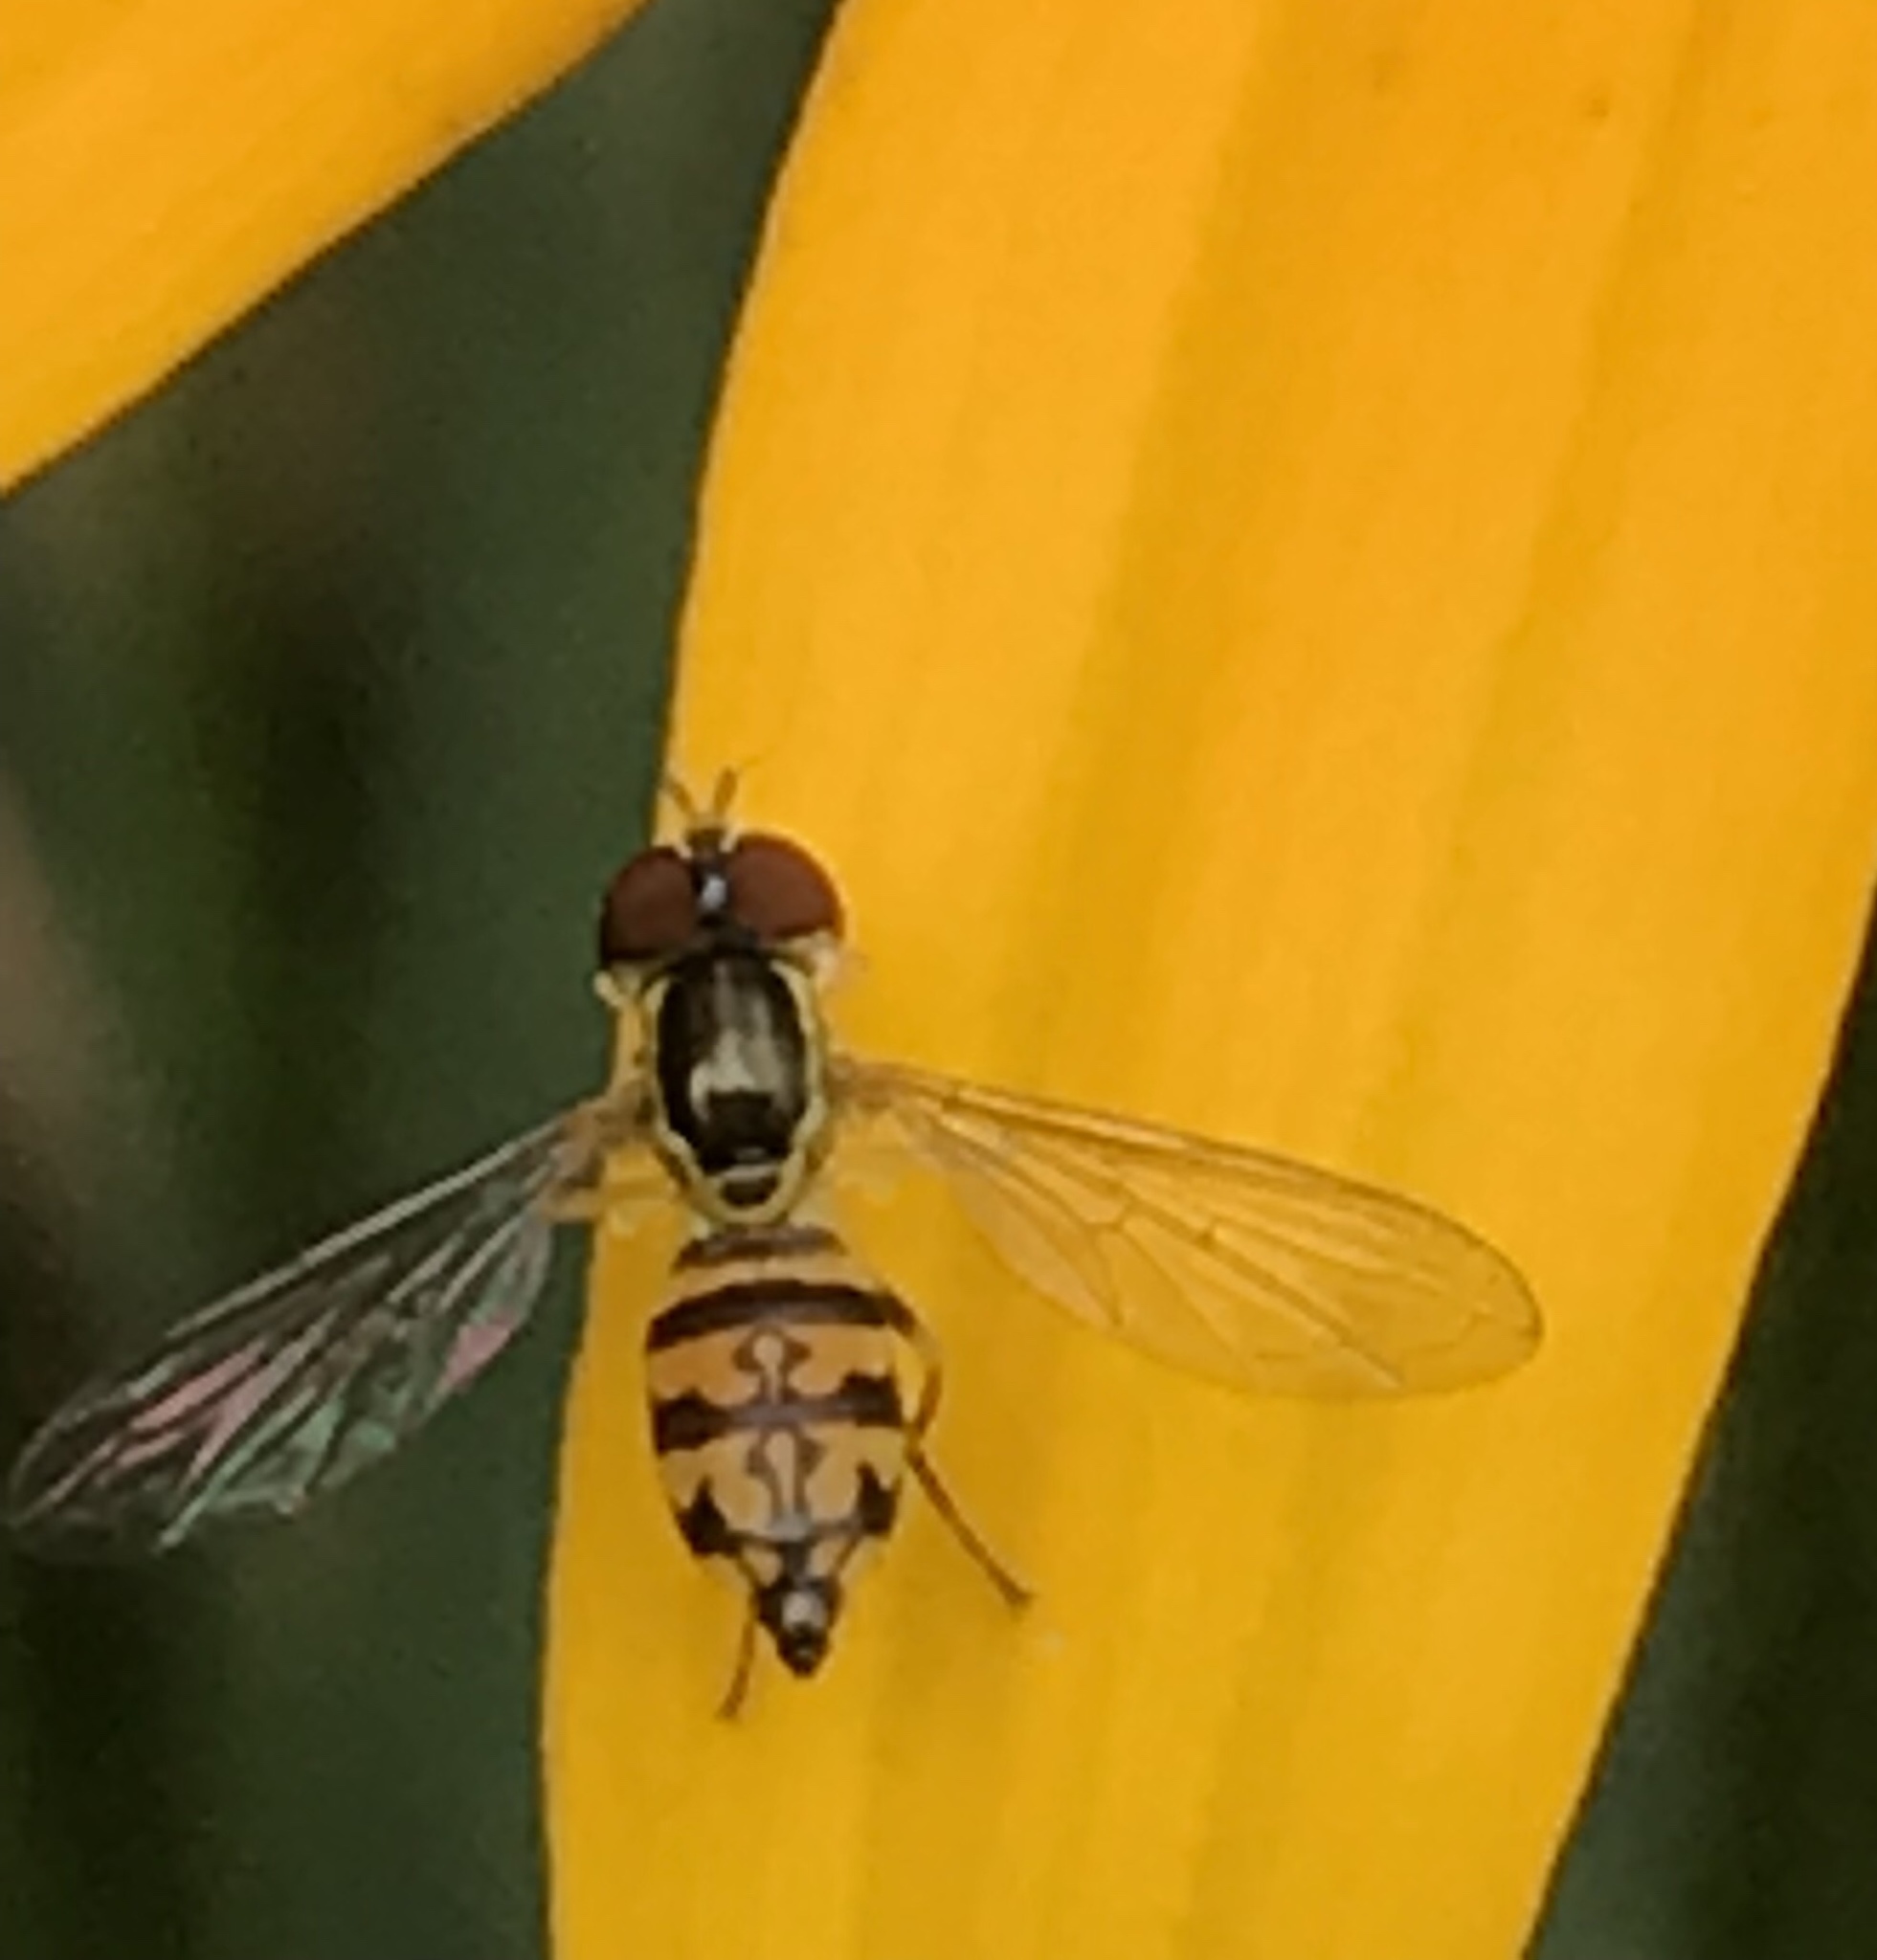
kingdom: Animalia
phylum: Arthropoda
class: Insecta
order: Diptera
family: Syrphidae
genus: Toxomerus
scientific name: Toxomerus geminatus
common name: Eastern calligrapher
